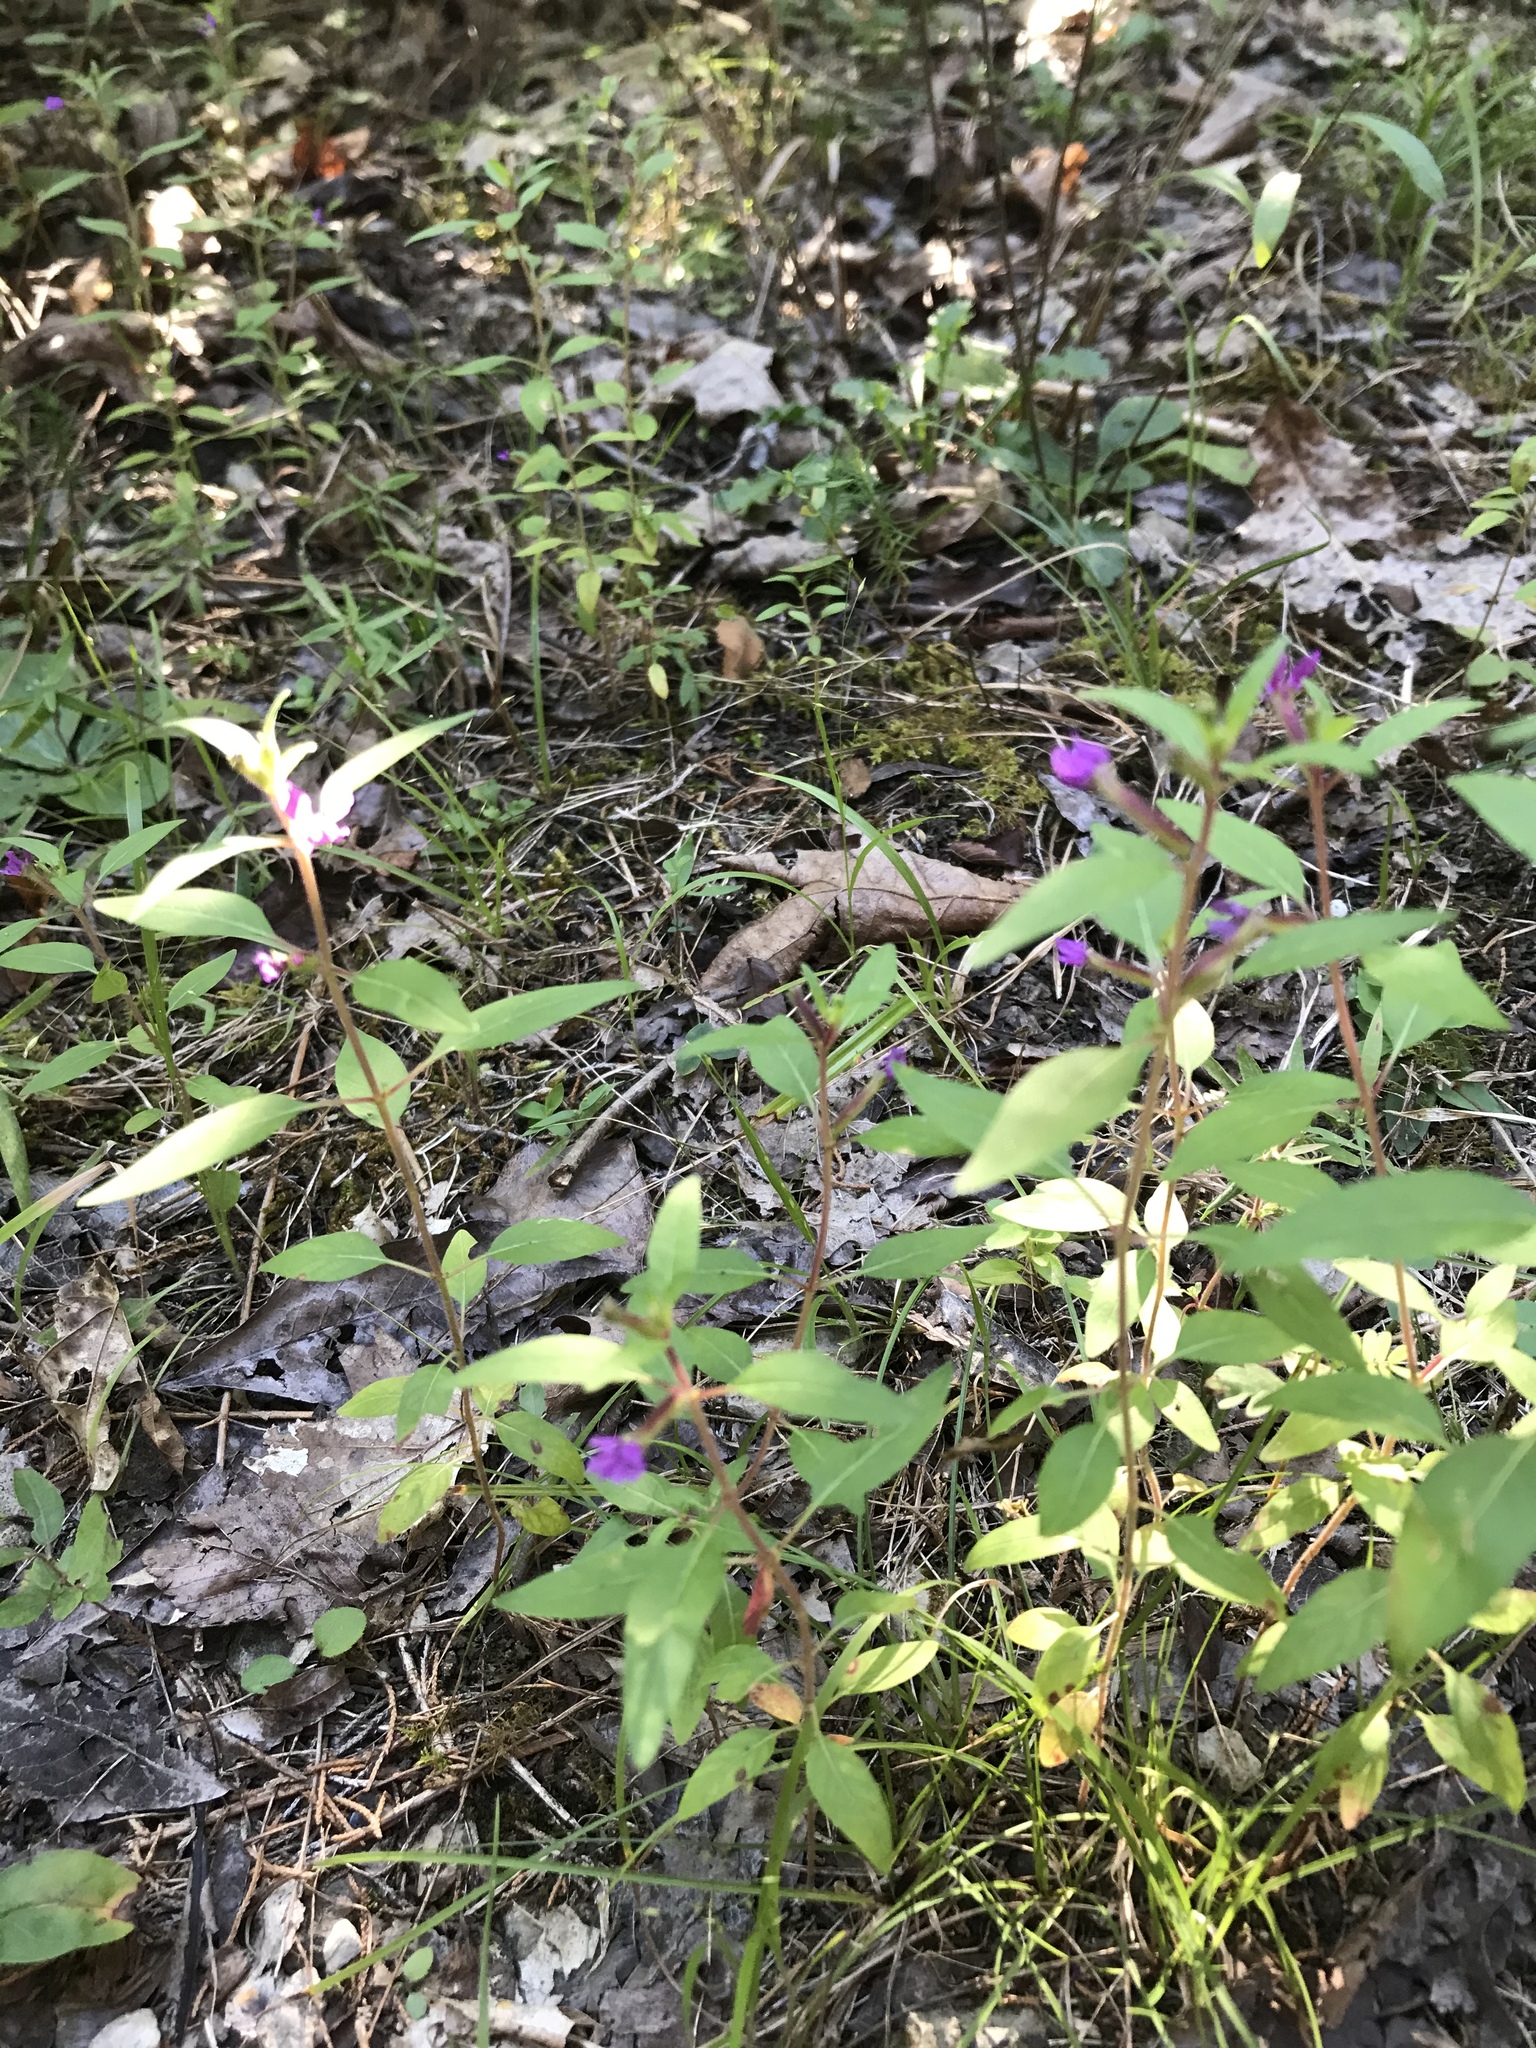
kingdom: Plantae
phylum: Tracheophyta
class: Magnoliopsida
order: Myrtales
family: Lythraceae
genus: Cuphea
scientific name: Cuphea viscosissima
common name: Clammy cuphea
